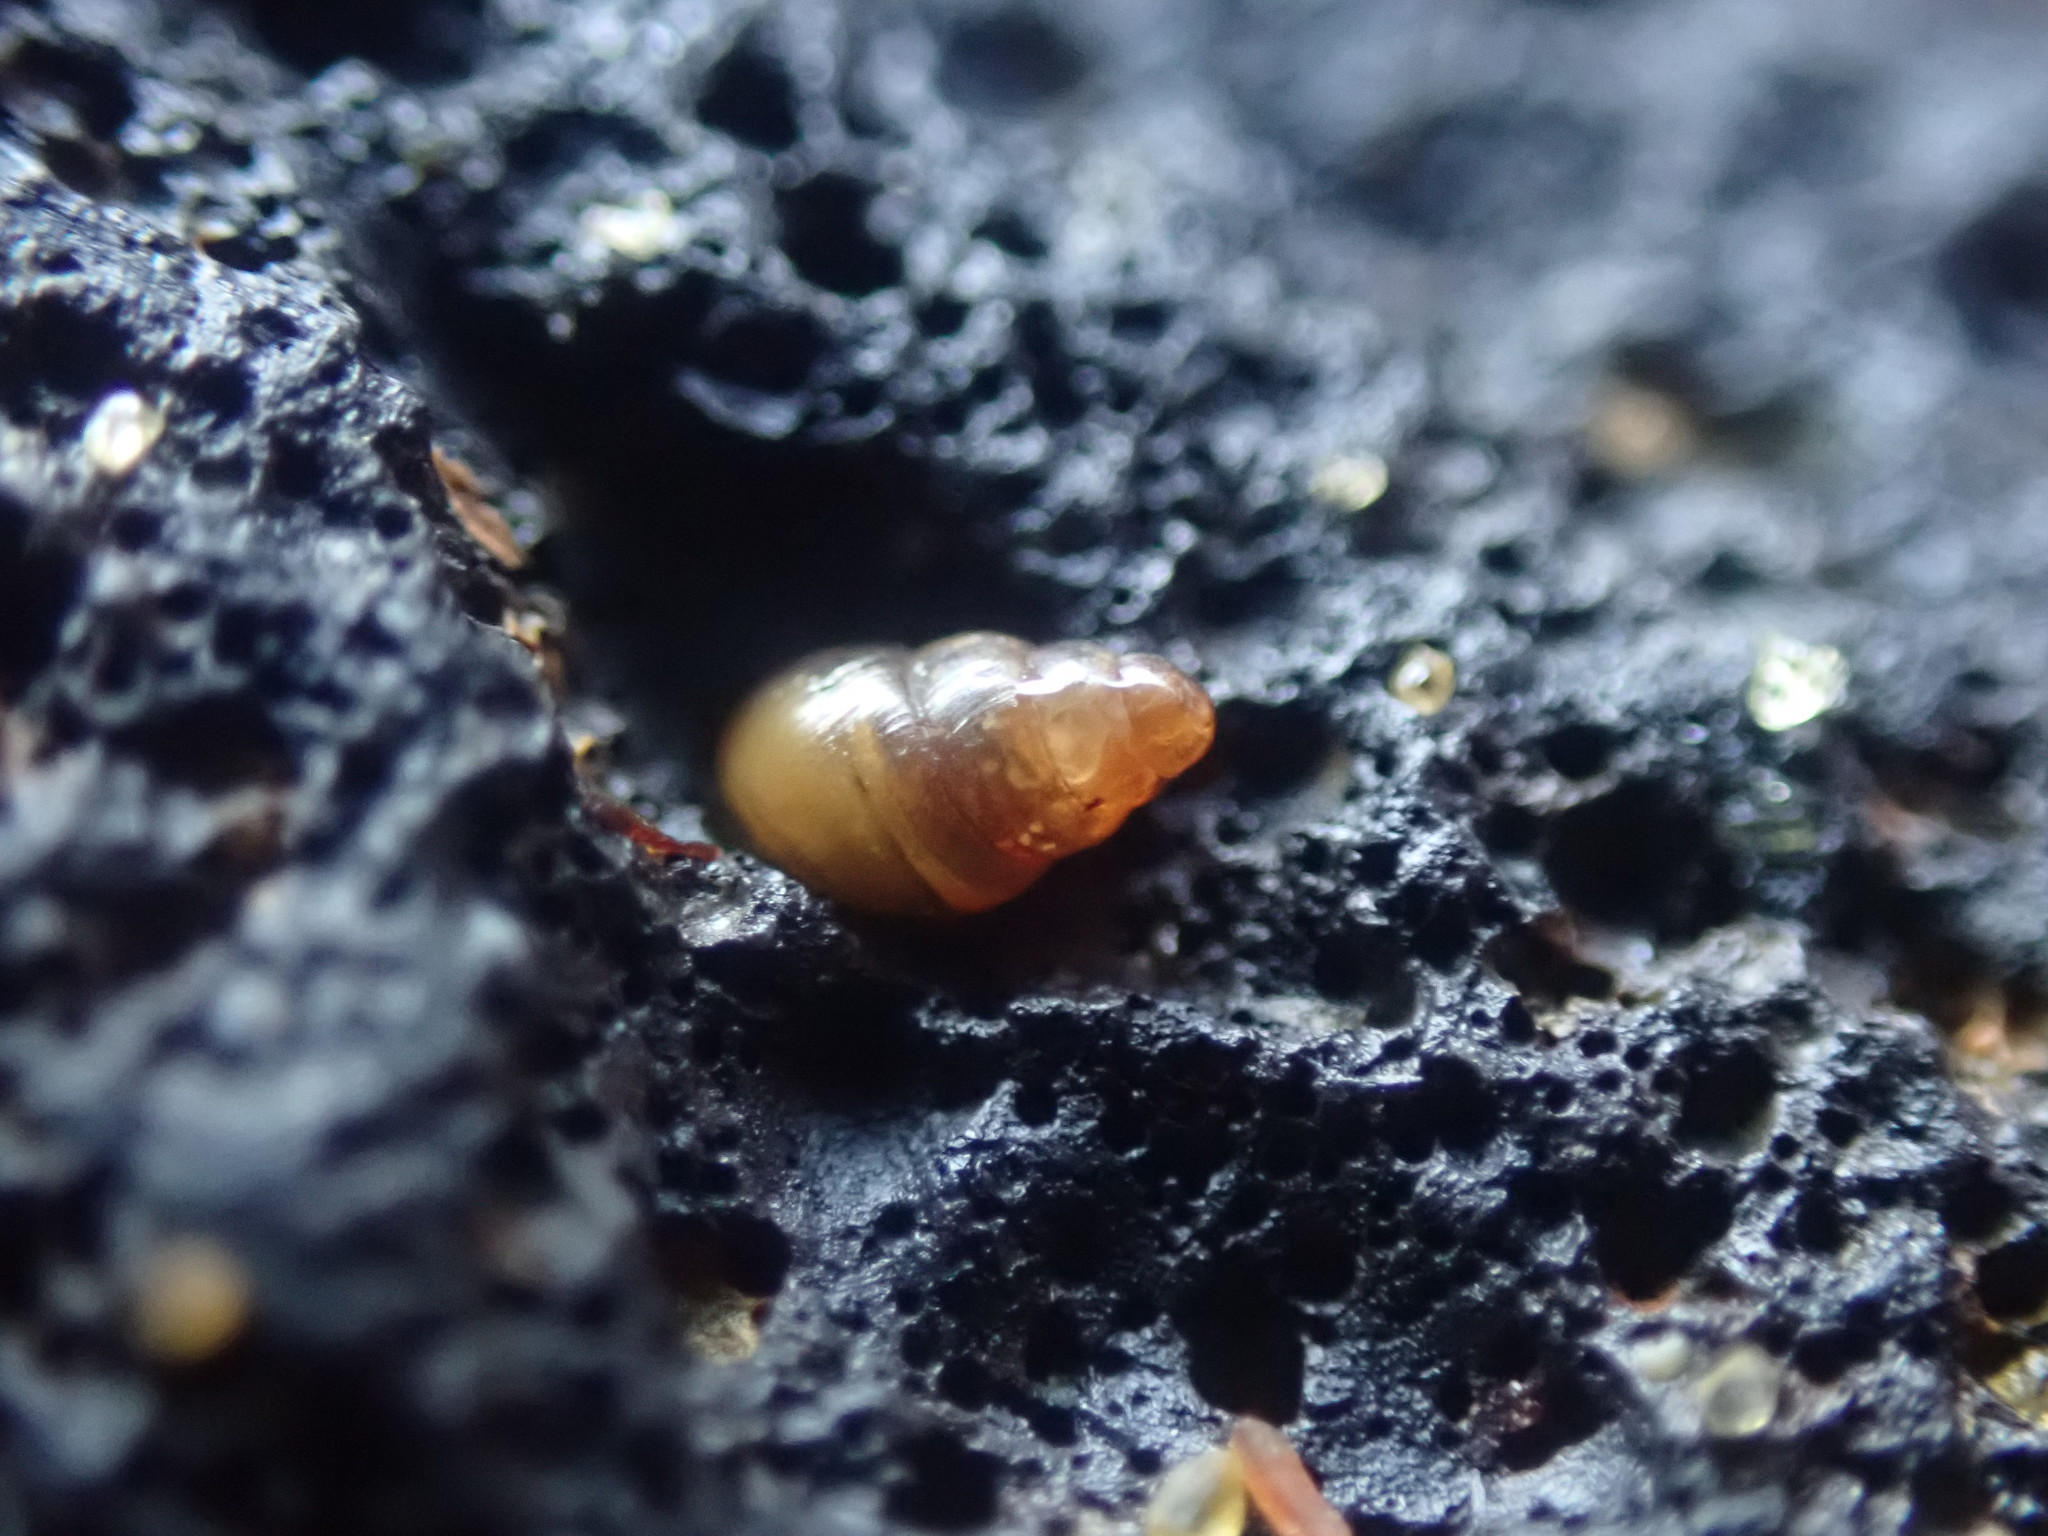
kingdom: Animalia
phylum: Mollusca
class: Gastropoda
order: Stylommatophora
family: Cochlicopidae
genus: Cochlicopa
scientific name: Cochlicopa lubrica
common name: Glossy pillar snail
